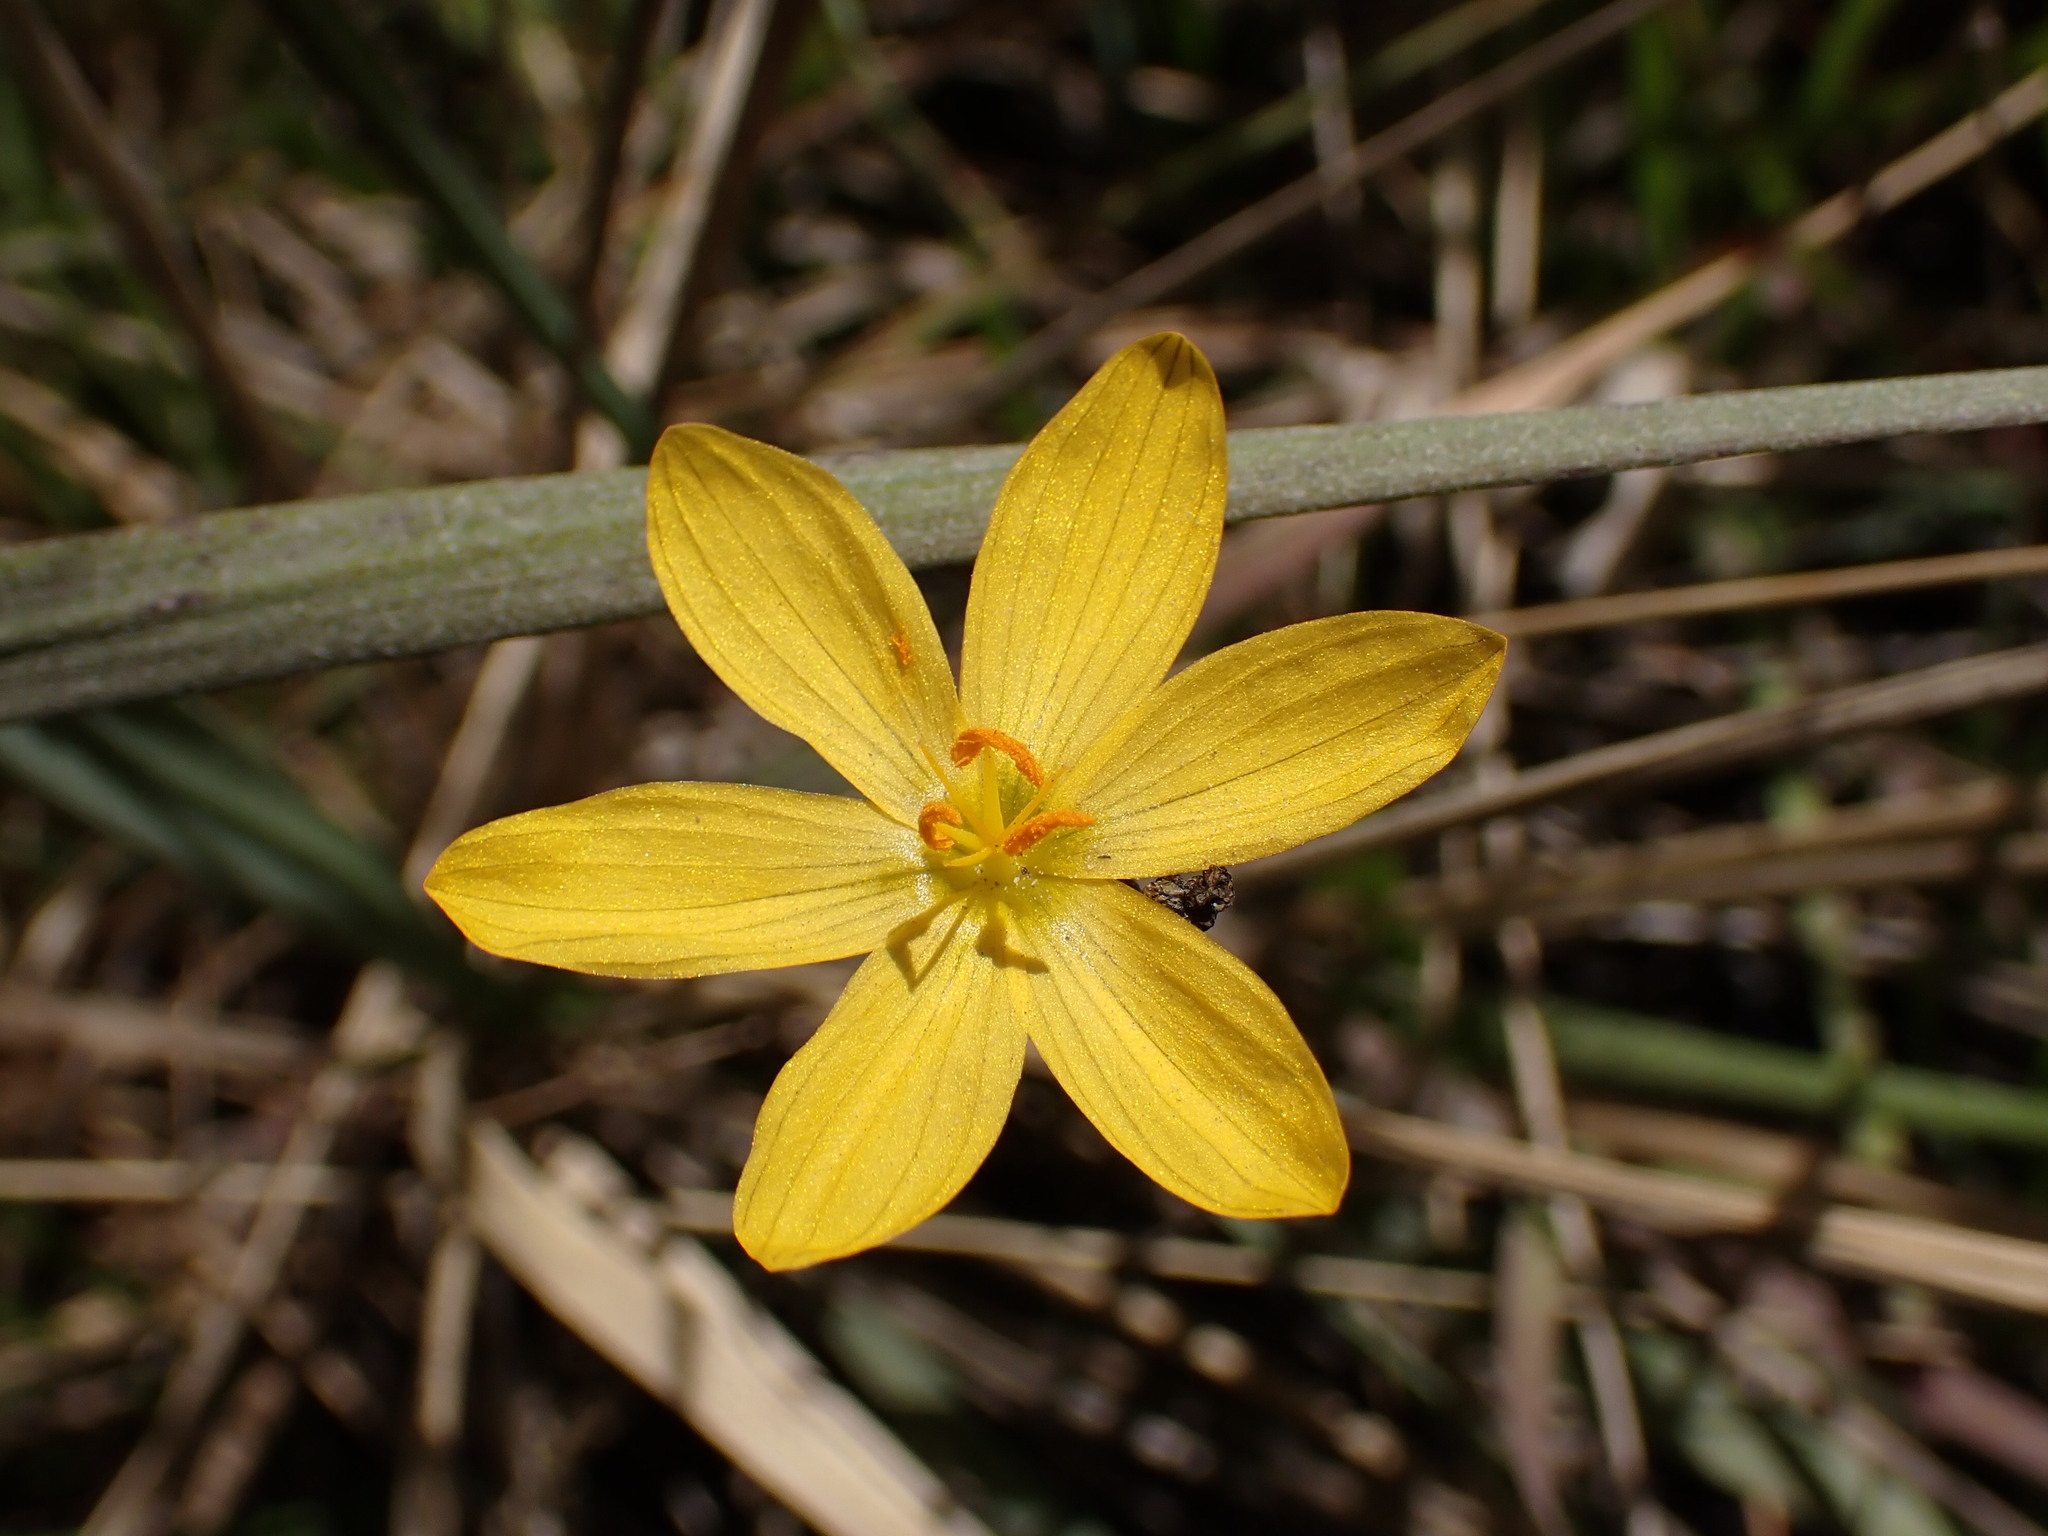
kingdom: Plantae
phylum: Tracheophyta
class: Liliopsida
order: Asparagales
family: Iridaceae
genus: Sisyrinchium
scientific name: Sisyrinchium californicum
